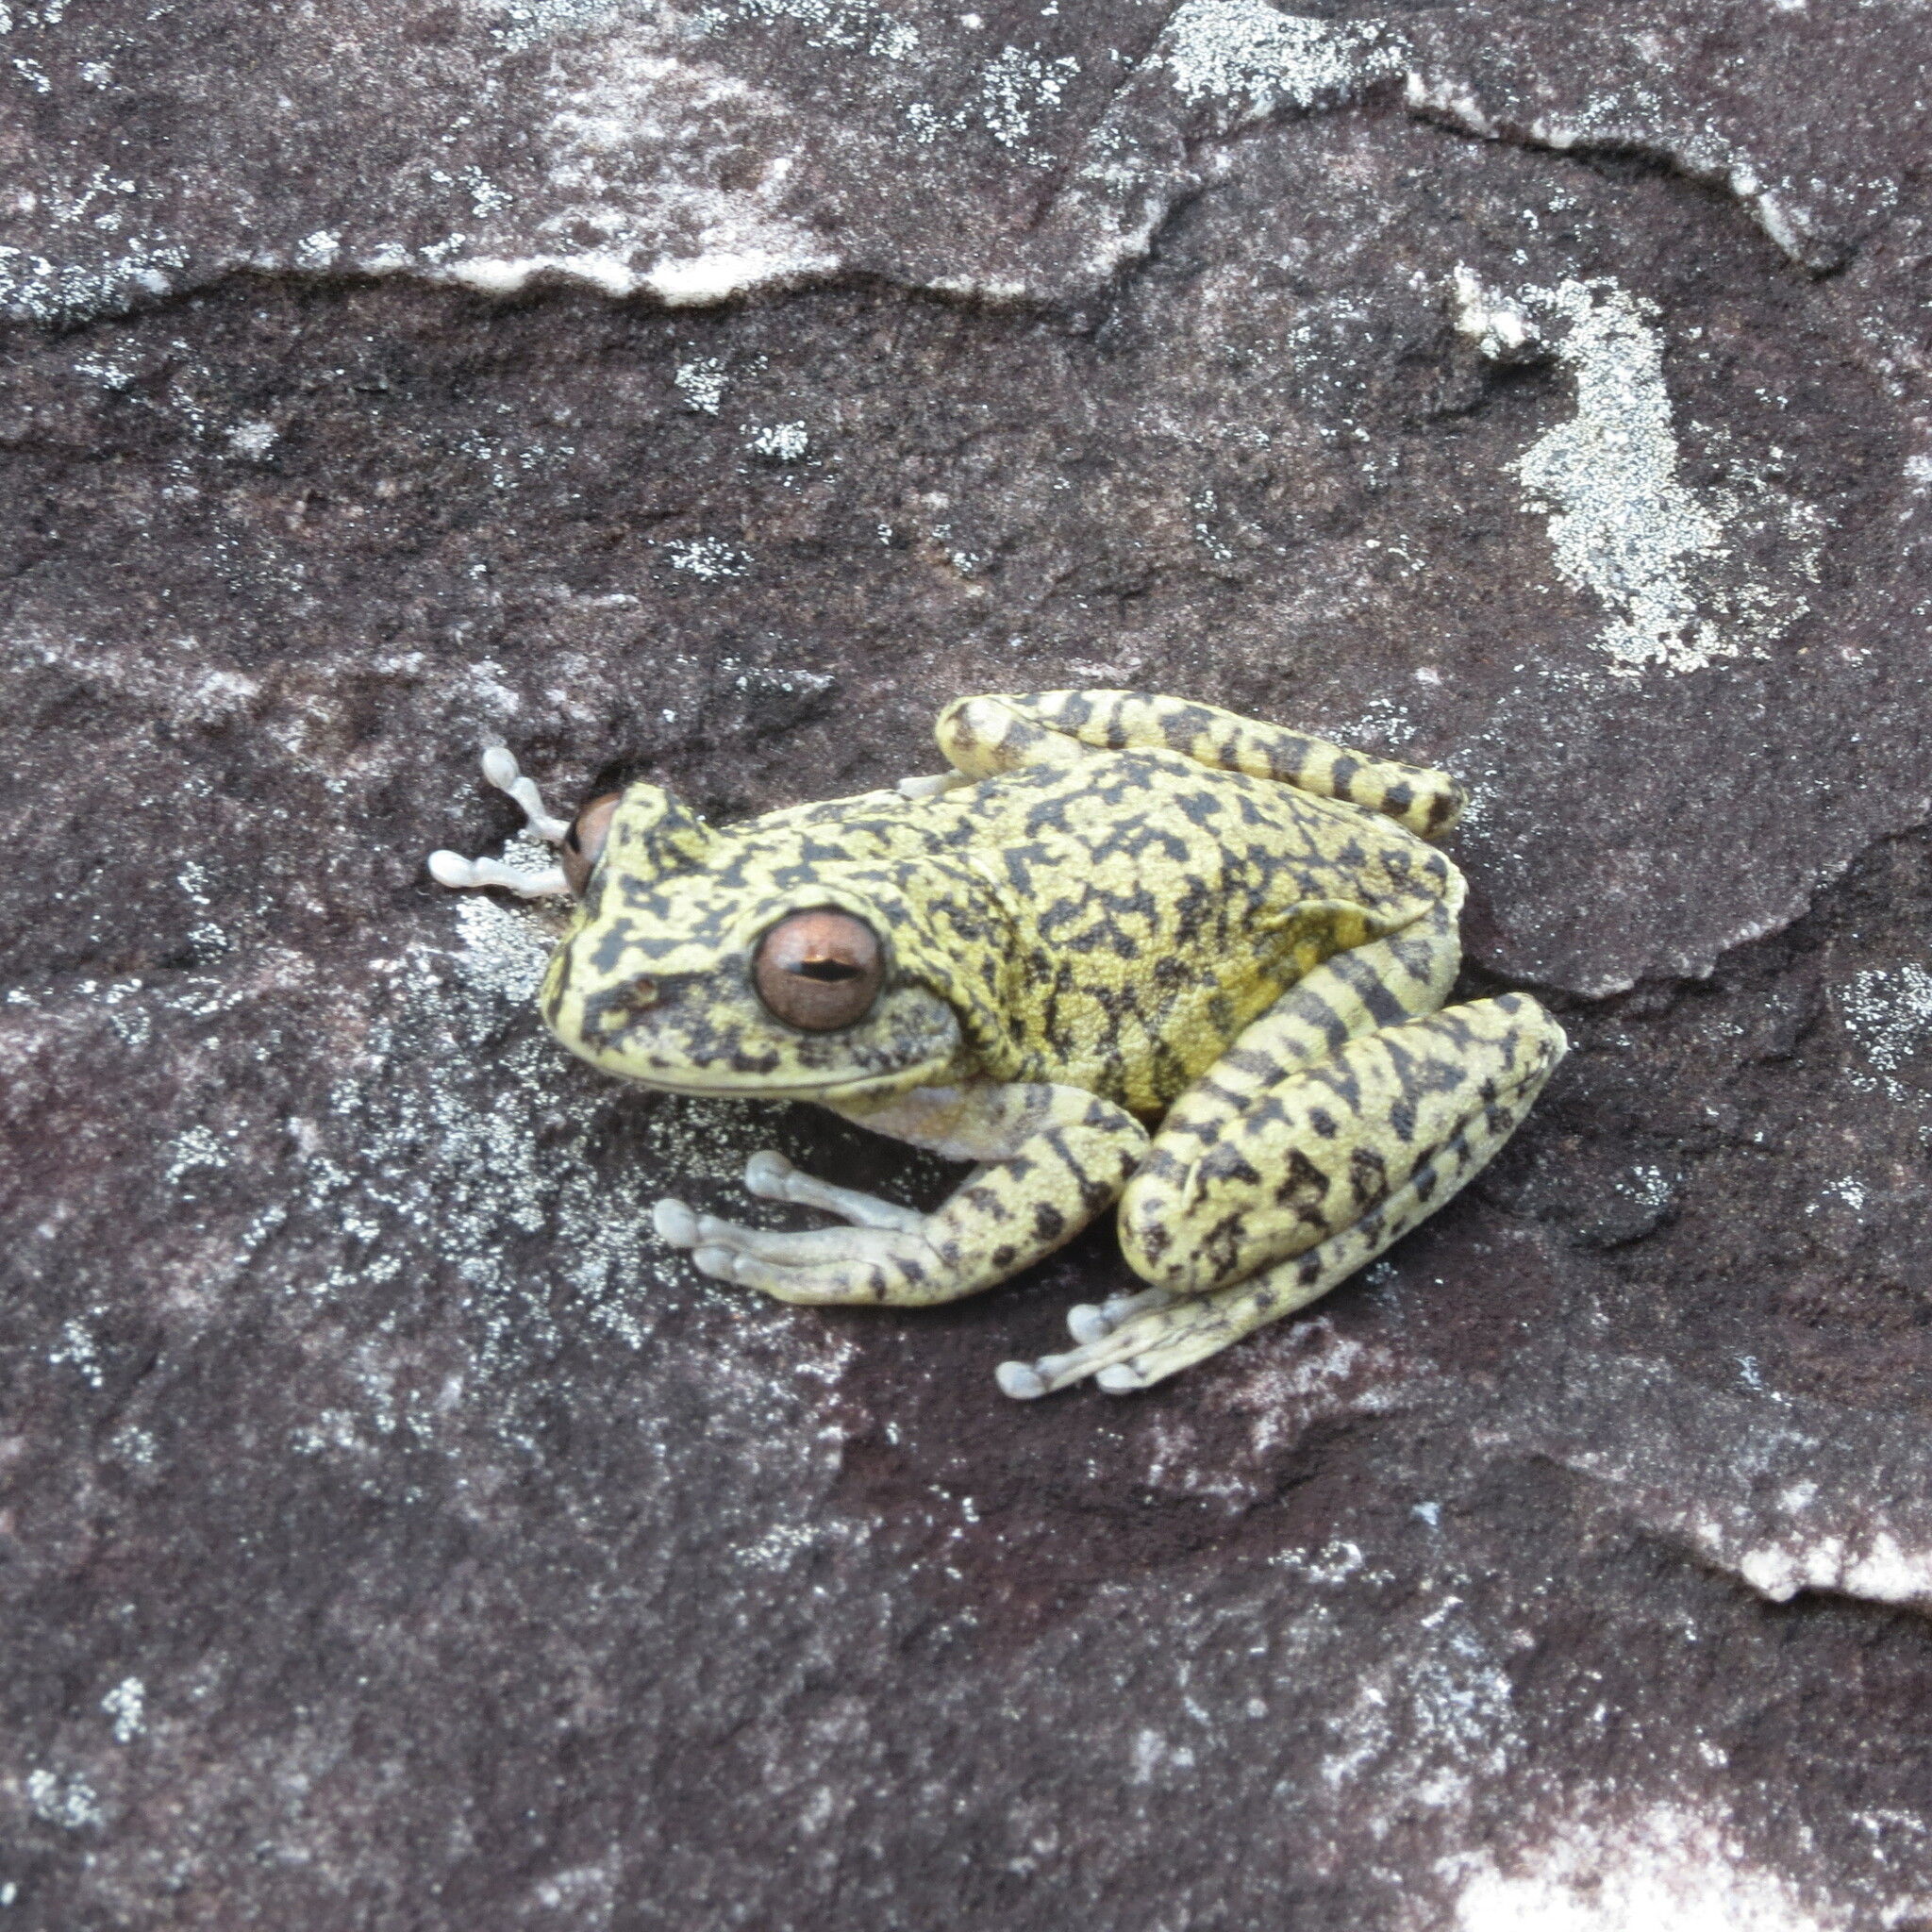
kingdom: Animalia
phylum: Chordata
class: Amphibia
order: Anura
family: Hylidae
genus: Bokermannohyla
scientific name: Bokermannohyla saxicola
